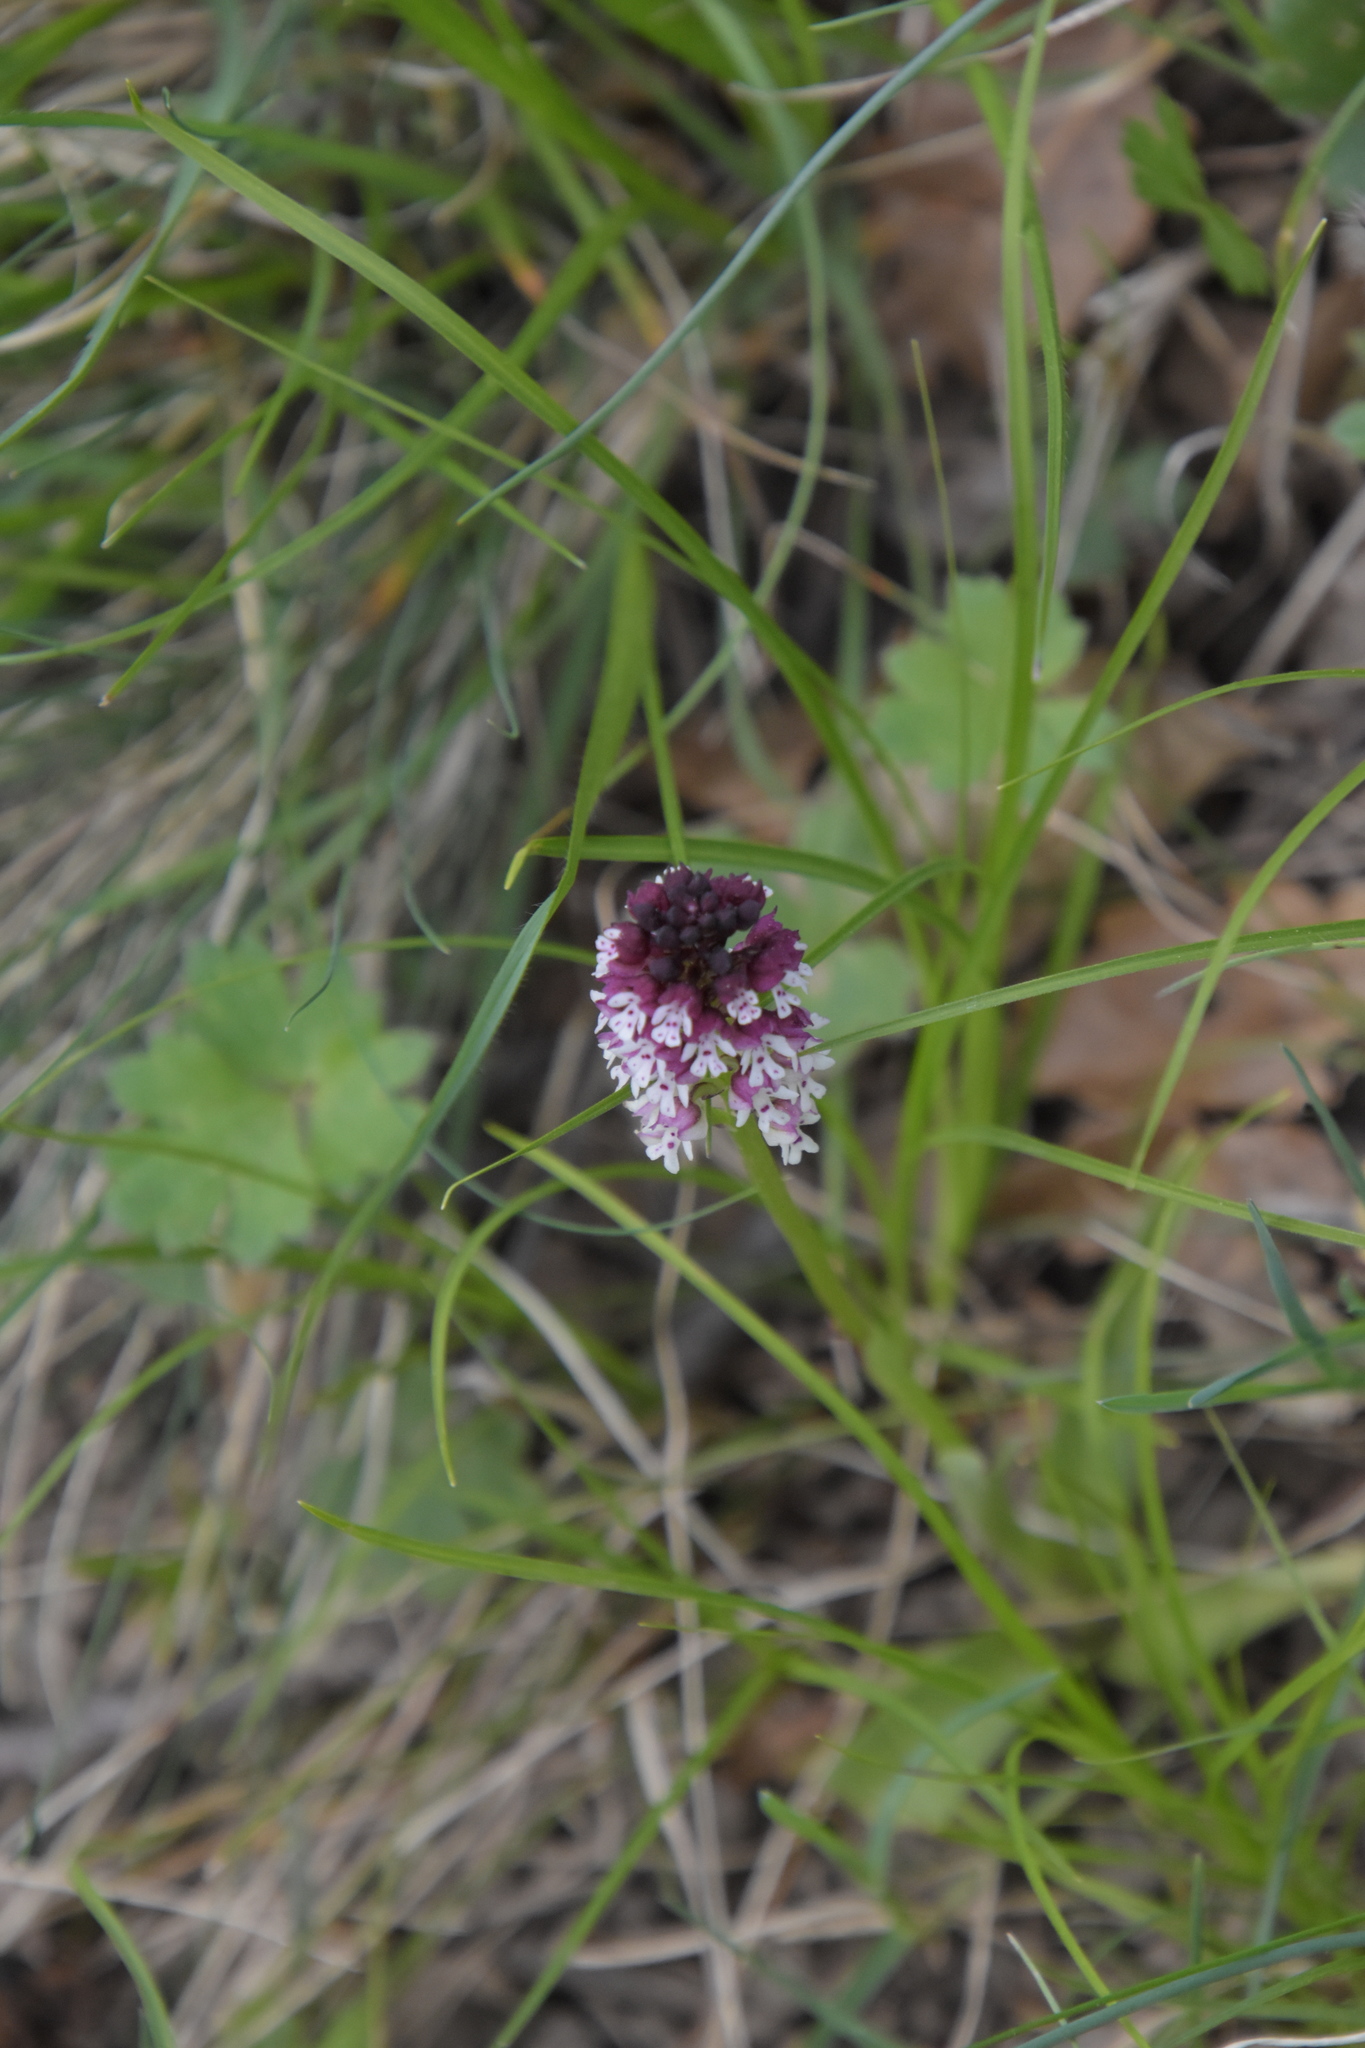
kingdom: Plantae
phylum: Tracheophyta
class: Liliopsida
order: Asparagales
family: Orchidaceae
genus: Neotinea
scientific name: Neotinea ustulata
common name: Burnt orchid
